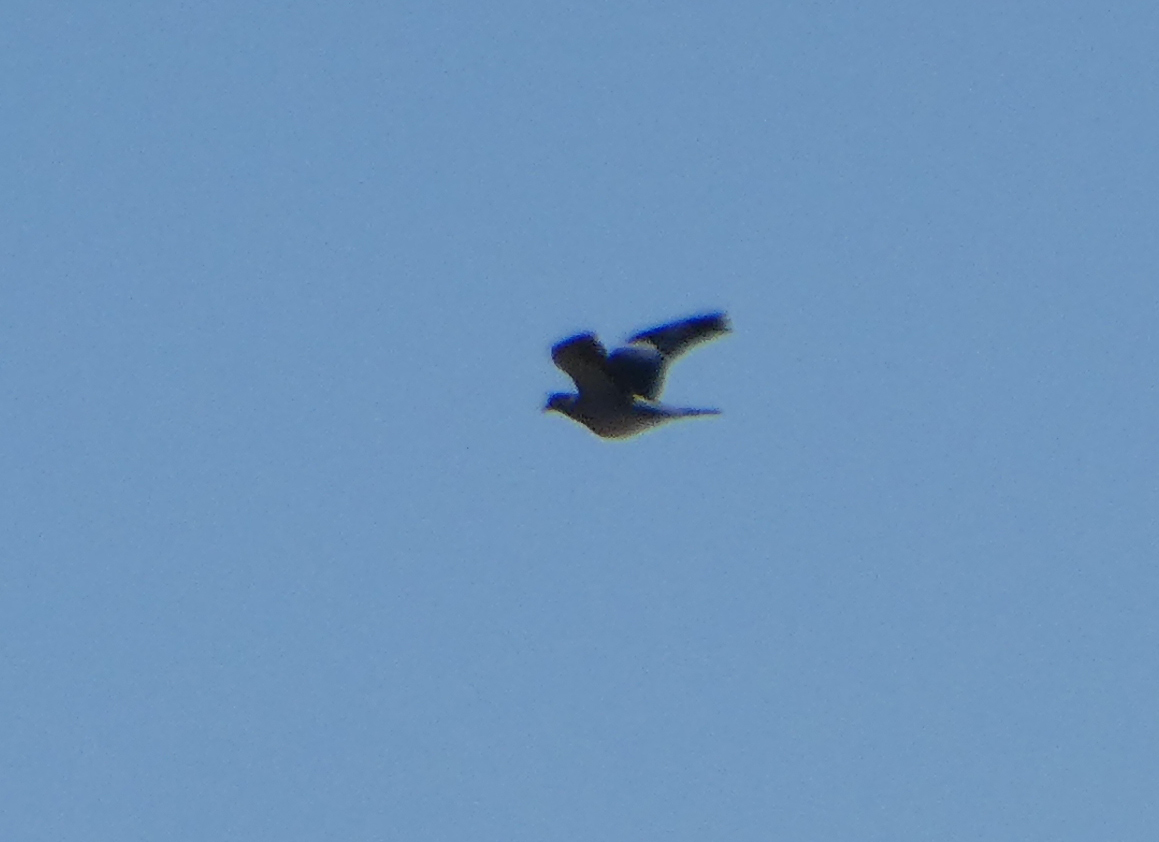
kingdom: Animalia
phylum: Chordata
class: Aves
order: Columbiformes
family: Columbidae
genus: Columba
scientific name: Columba palumbus
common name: Common wood pigeon
